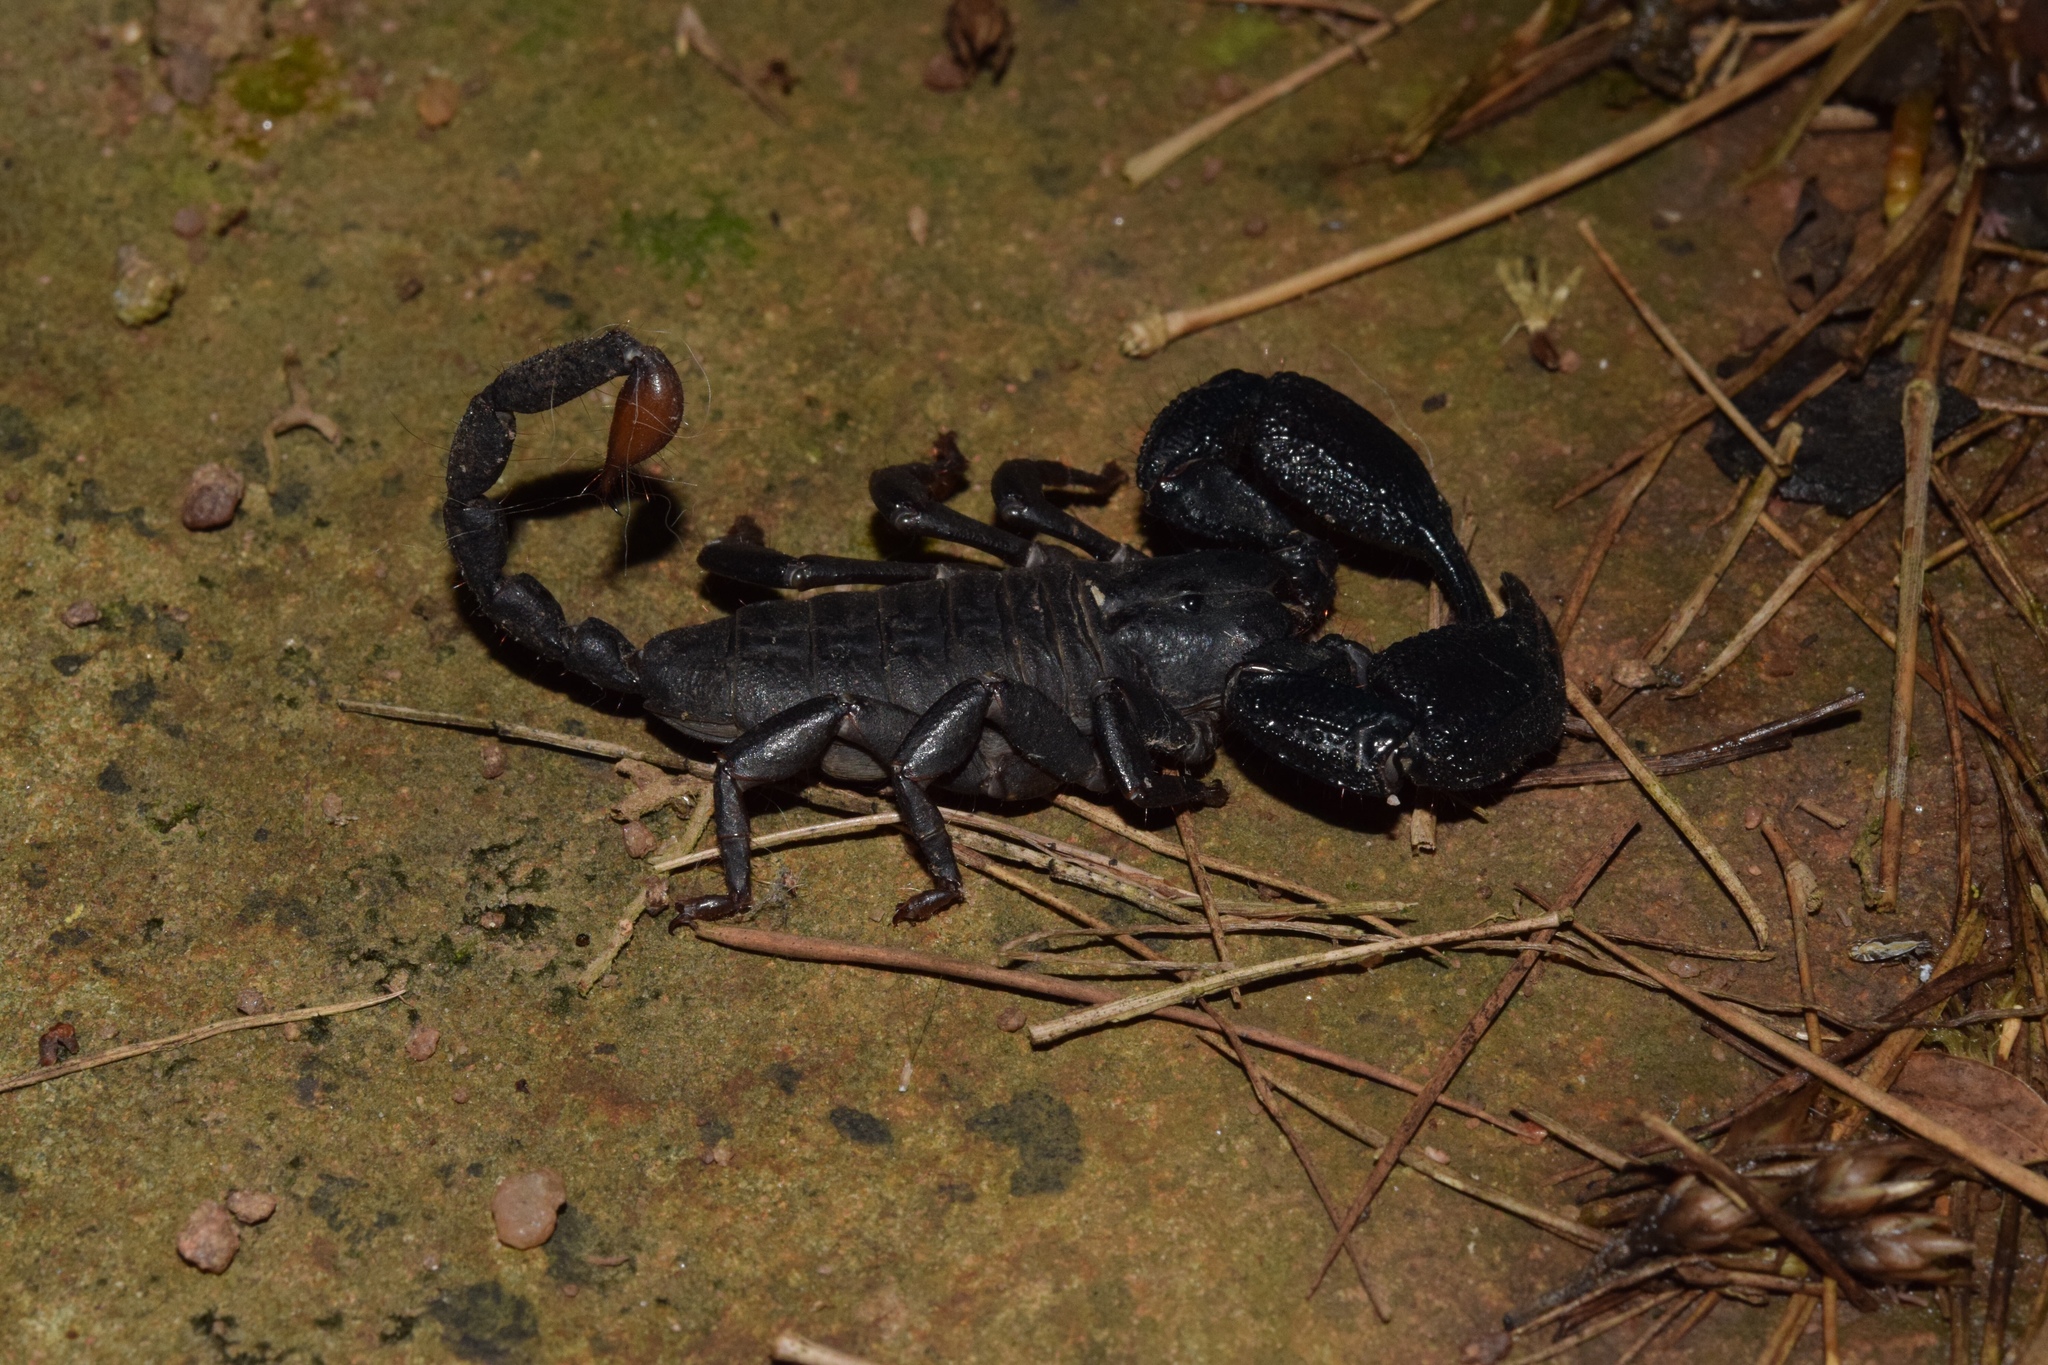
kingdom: Animalia
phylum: Arthropoda
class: Arachnida
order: Scorpiones
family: Hormuridae
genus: Opisthacanthus
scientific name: Opisthacanthus validus
